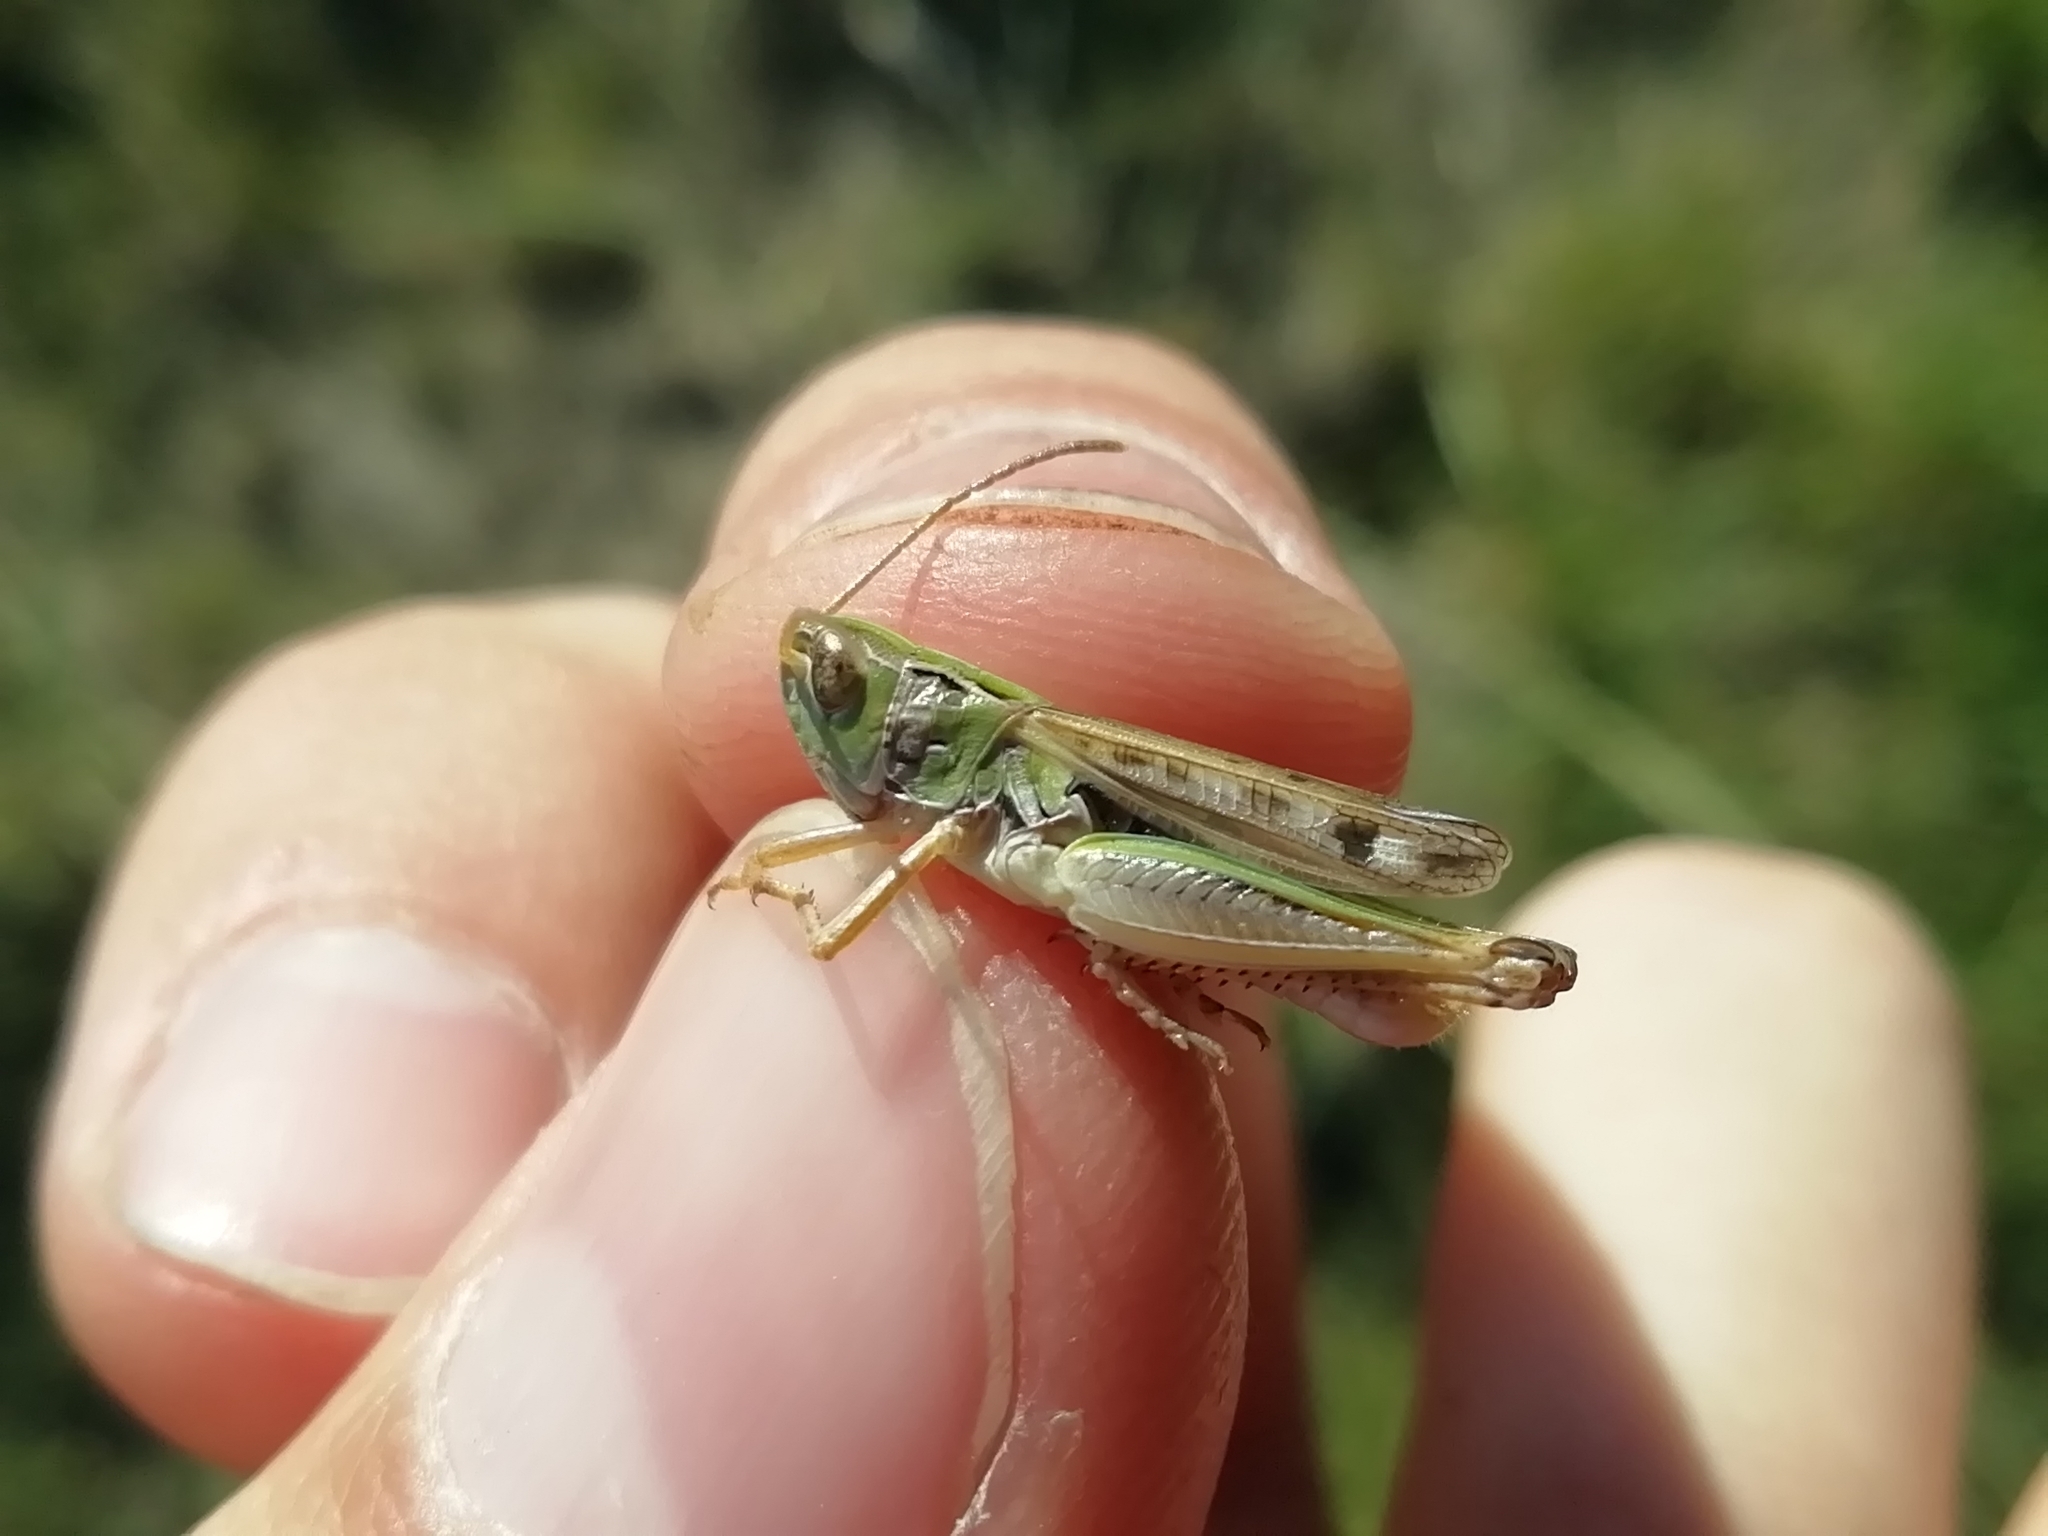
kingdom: Animalia
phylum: Arthropoda
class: Insecta
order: Orthoptera
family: Acrididae
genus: Stenobothrus
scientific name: Stenobothrus nigromaculatus
